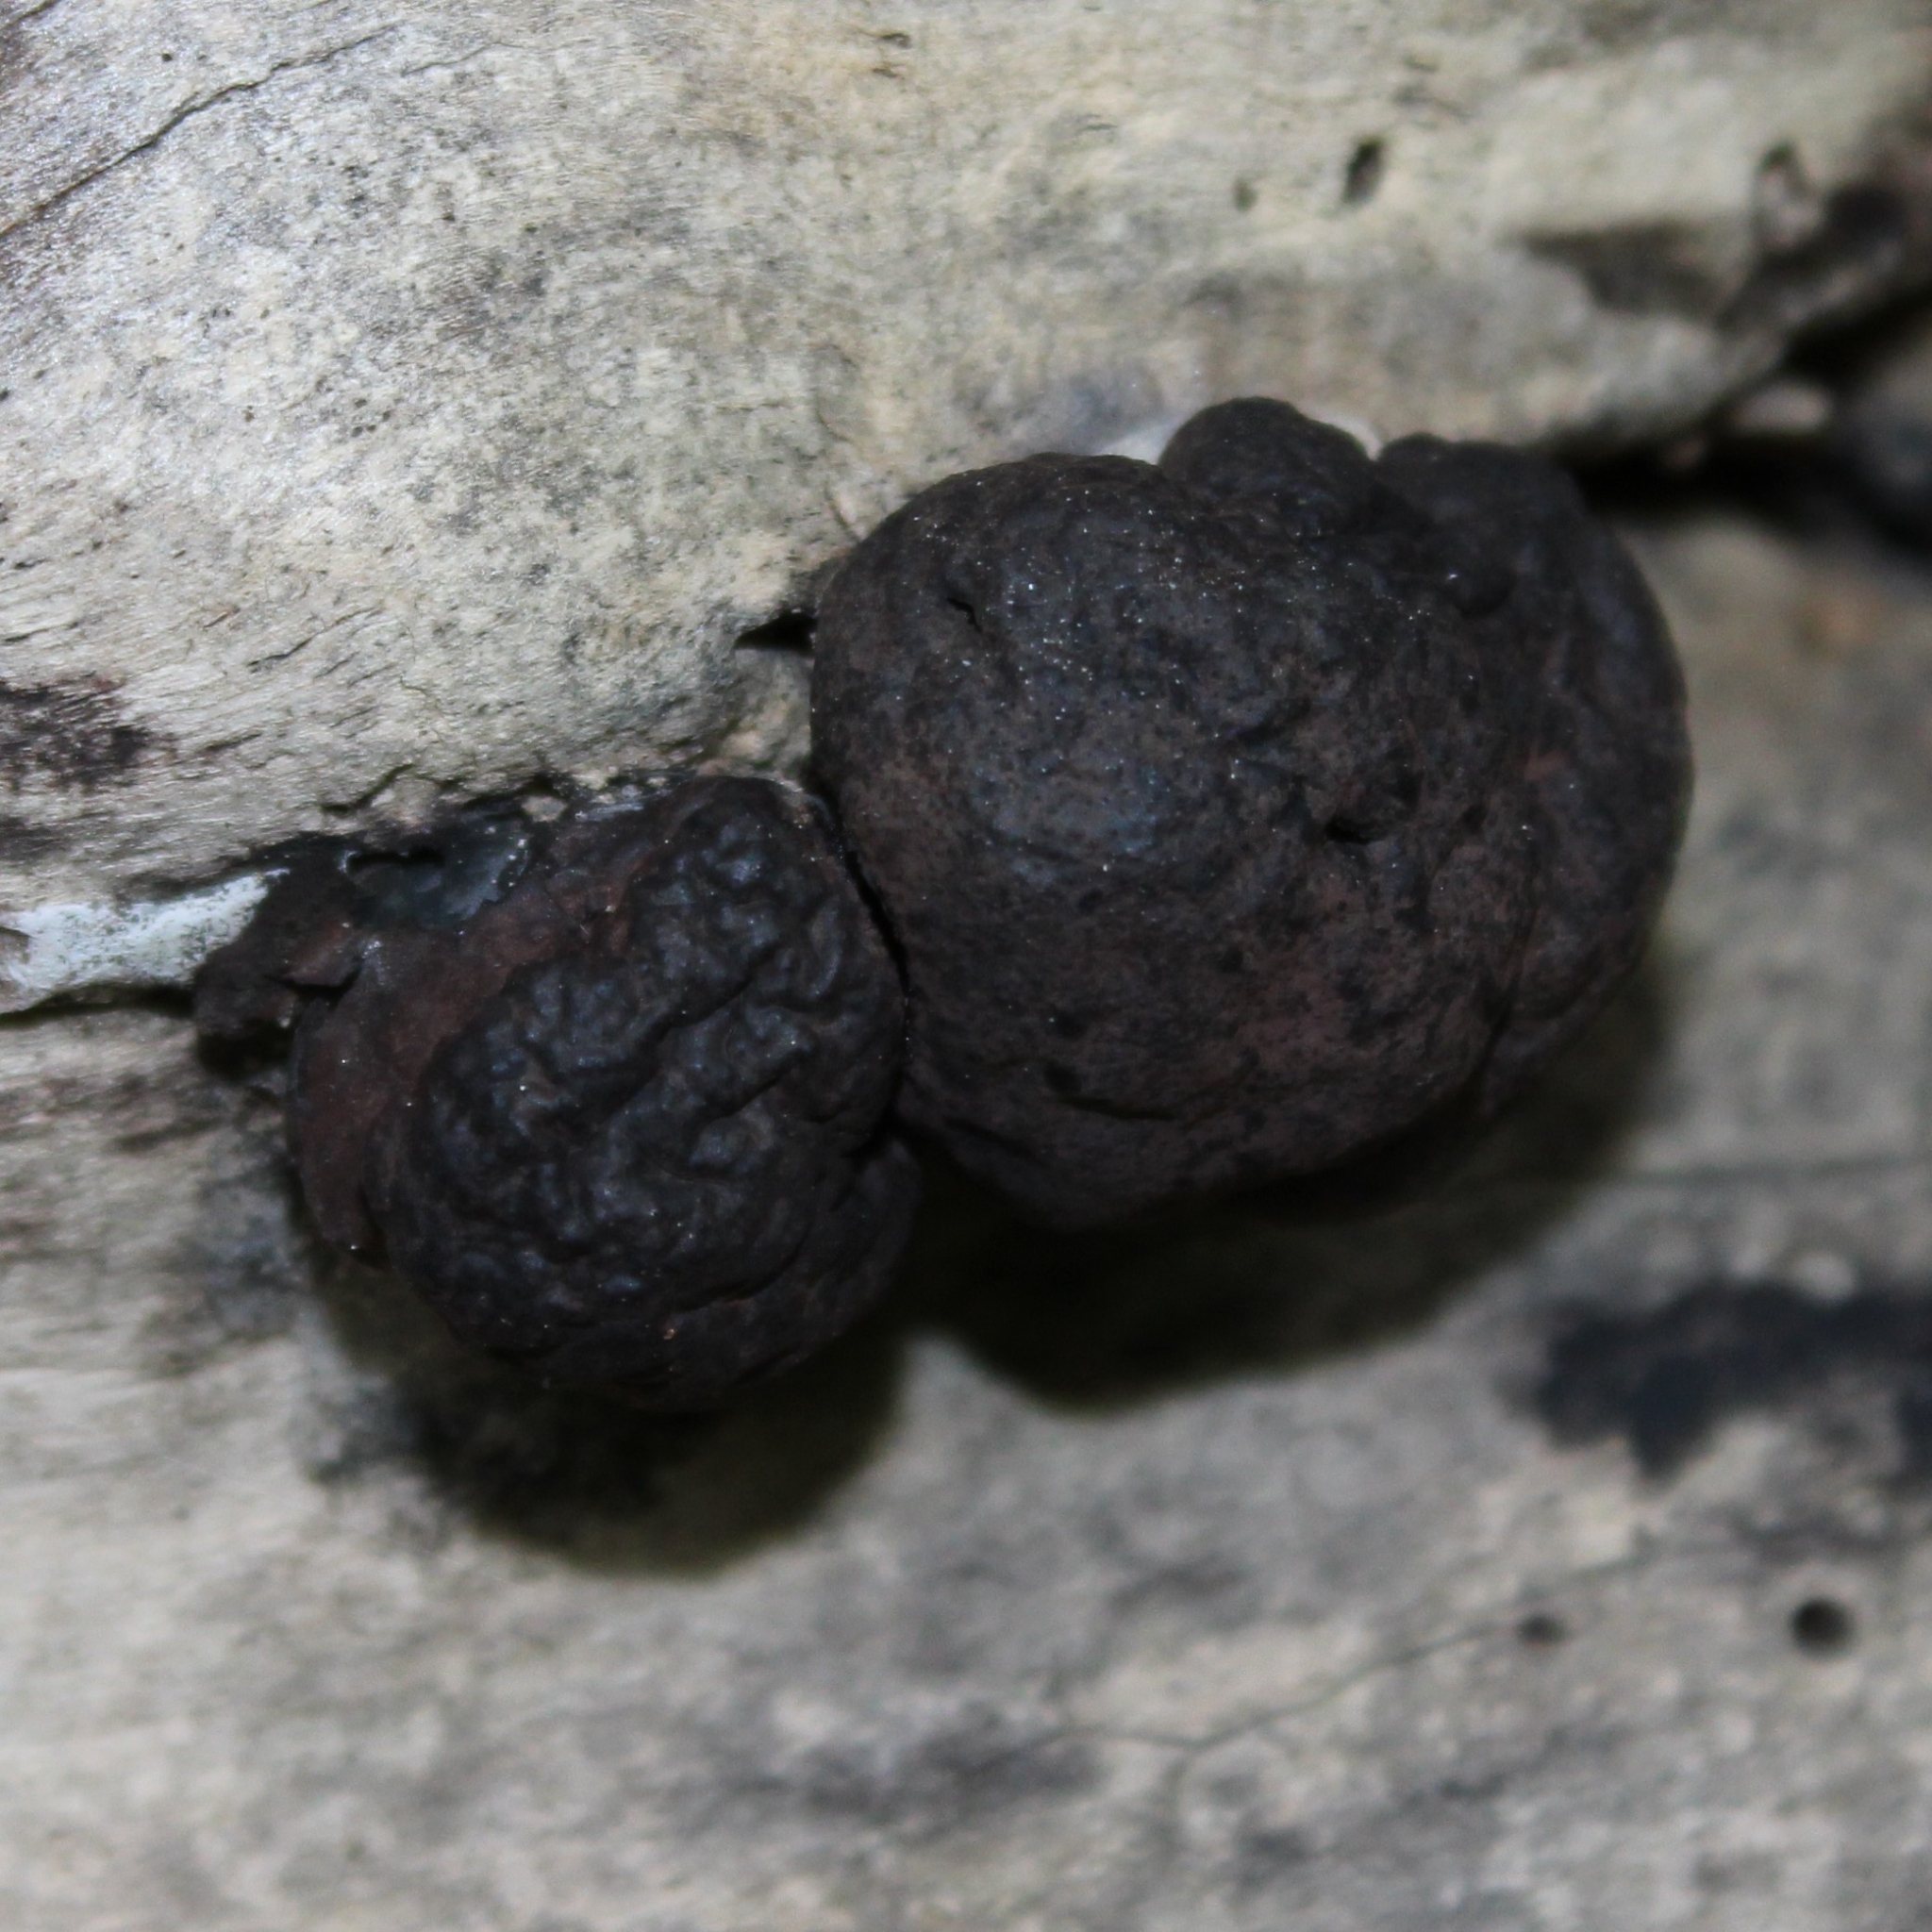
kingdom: Fungi
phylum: Ascomycota
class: Sordariomycetes
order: Xylariales
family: Hypoxylaceae
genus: Daldinia
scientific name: Daldinia childiae
